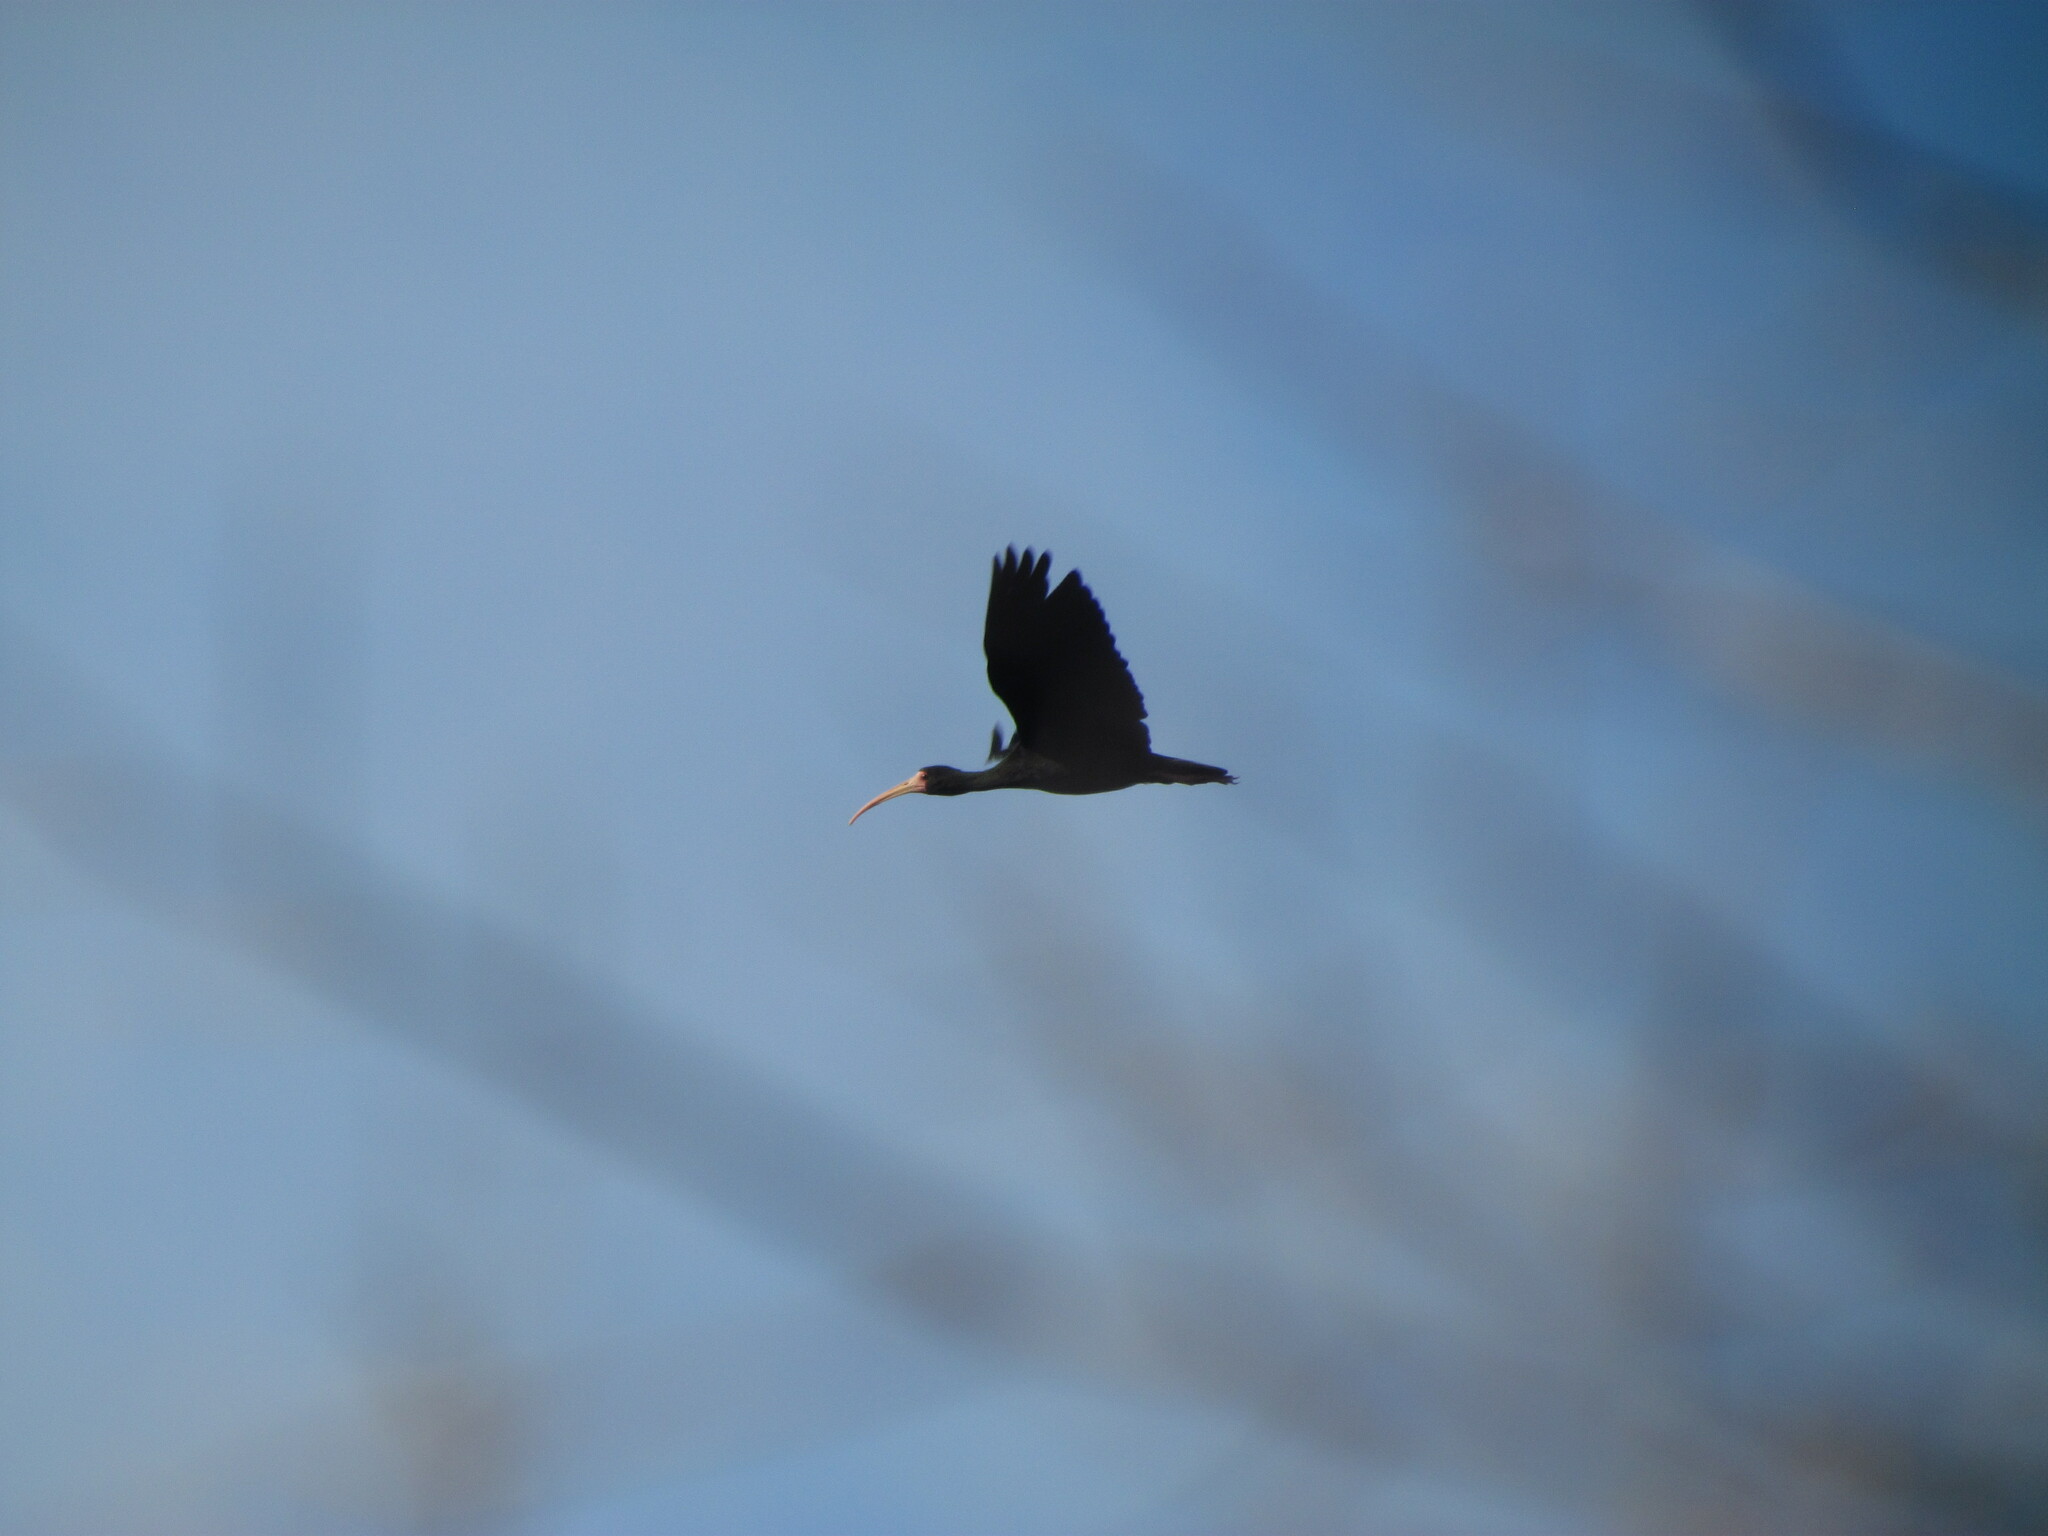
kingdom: Animalia
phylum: Chordata
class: Aves
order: Pelecaniformes
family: Threskiornithidae
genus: Phimosus
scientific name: Phimosus infuscatus
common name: Bare-faced ibis
